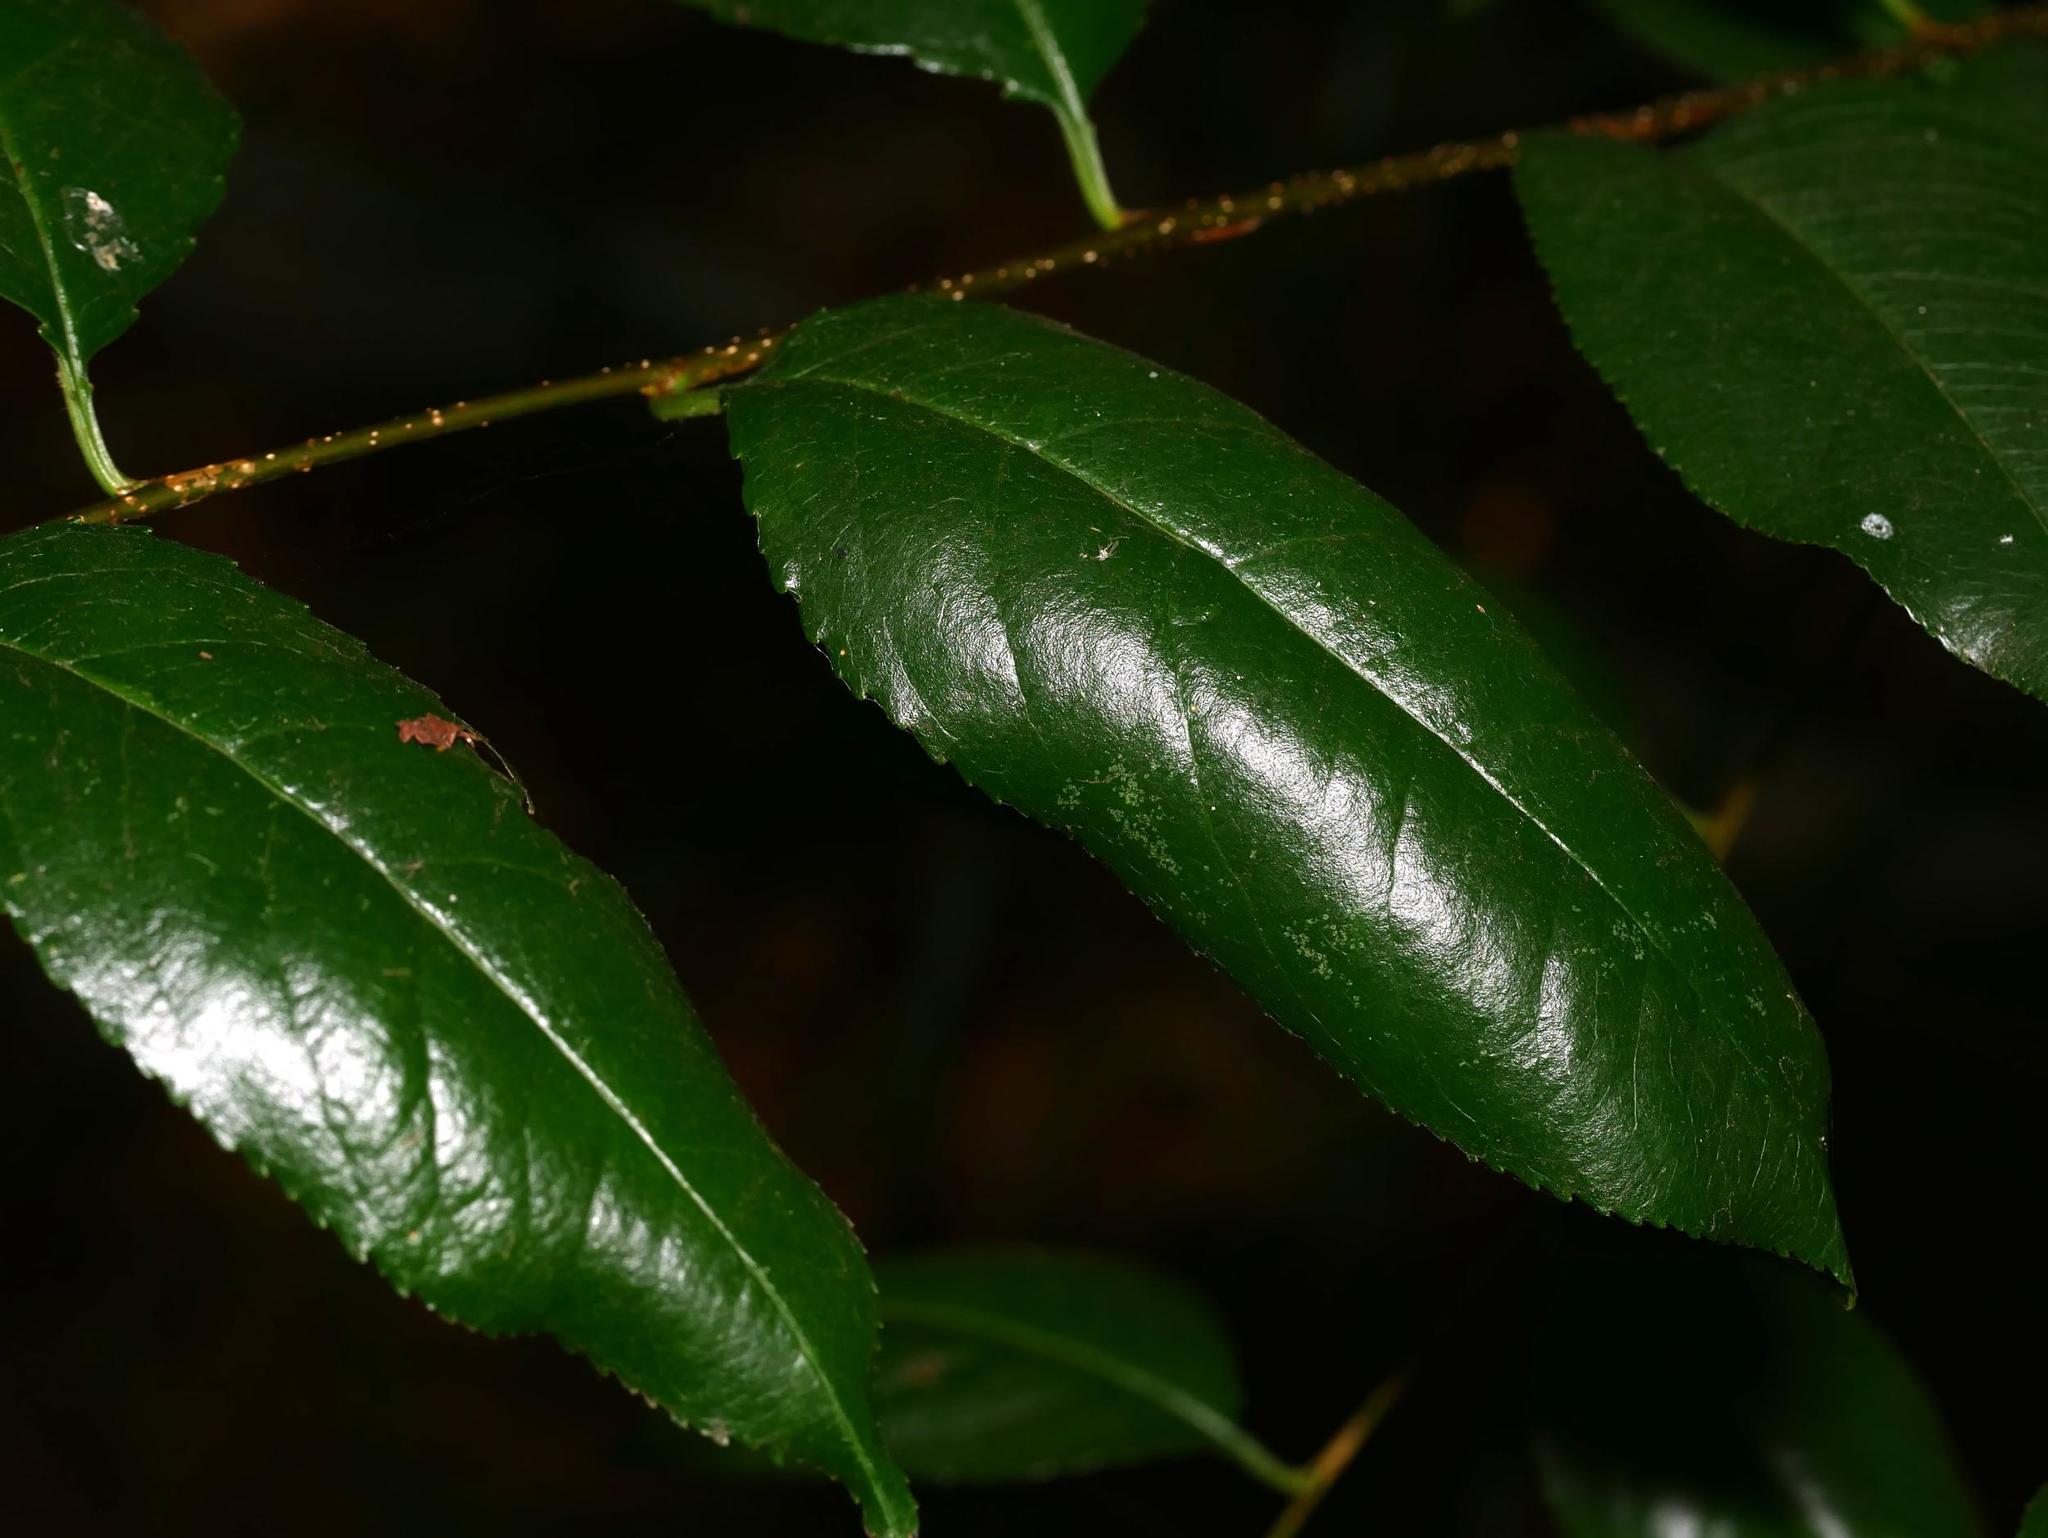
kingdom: Plantae
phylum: Tracheophyta
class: Magnoliopsida
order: Rosales
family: Rosaceae
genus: Prunus
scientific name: Prunus serotina
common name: Black cherry
